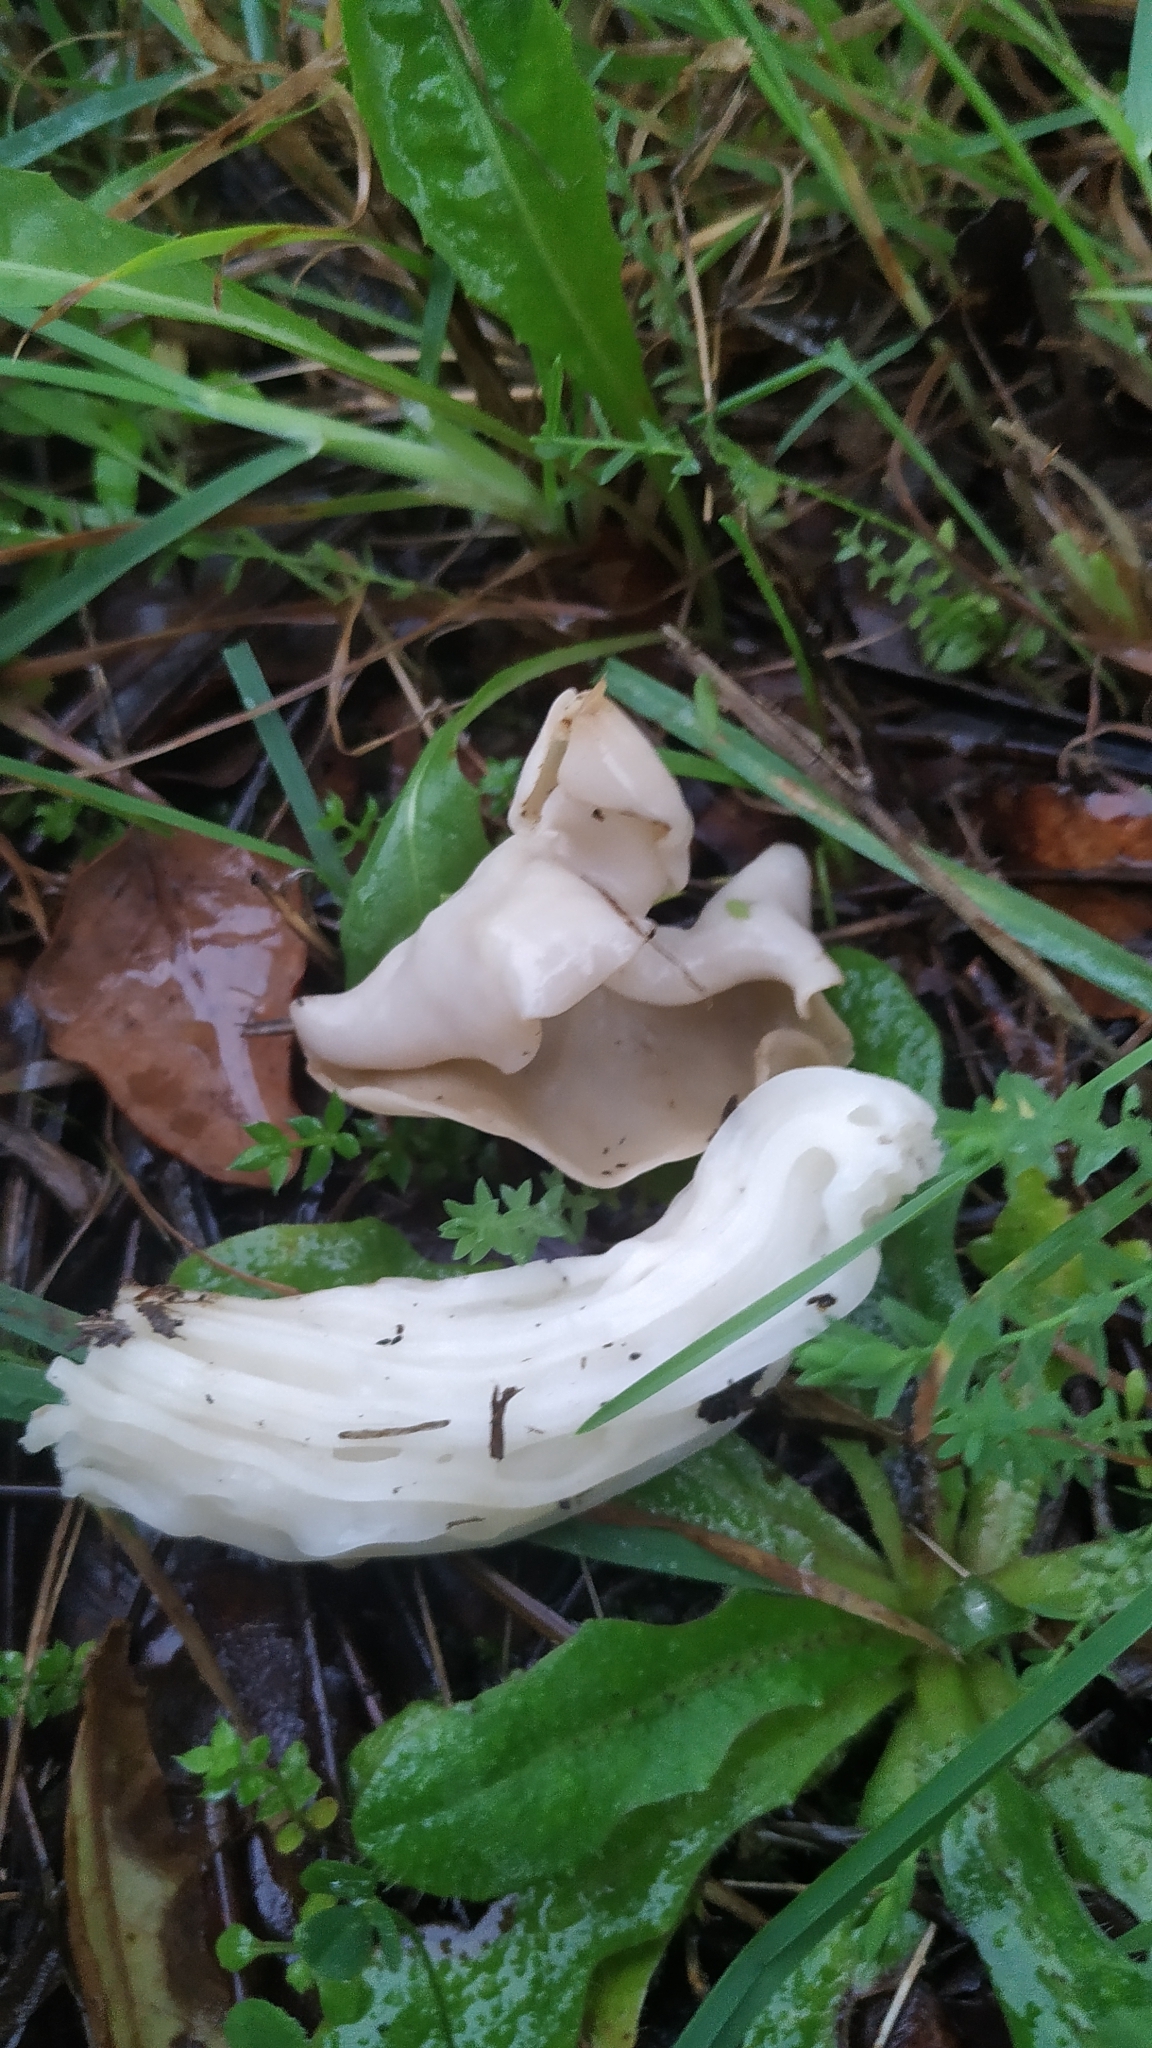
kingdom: Fungi
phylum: Ascomycota
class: Pezizomycetes
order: Pezizales
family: Helvellaceae
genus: Helvella
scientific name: Helvella crispa
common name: White saddle
